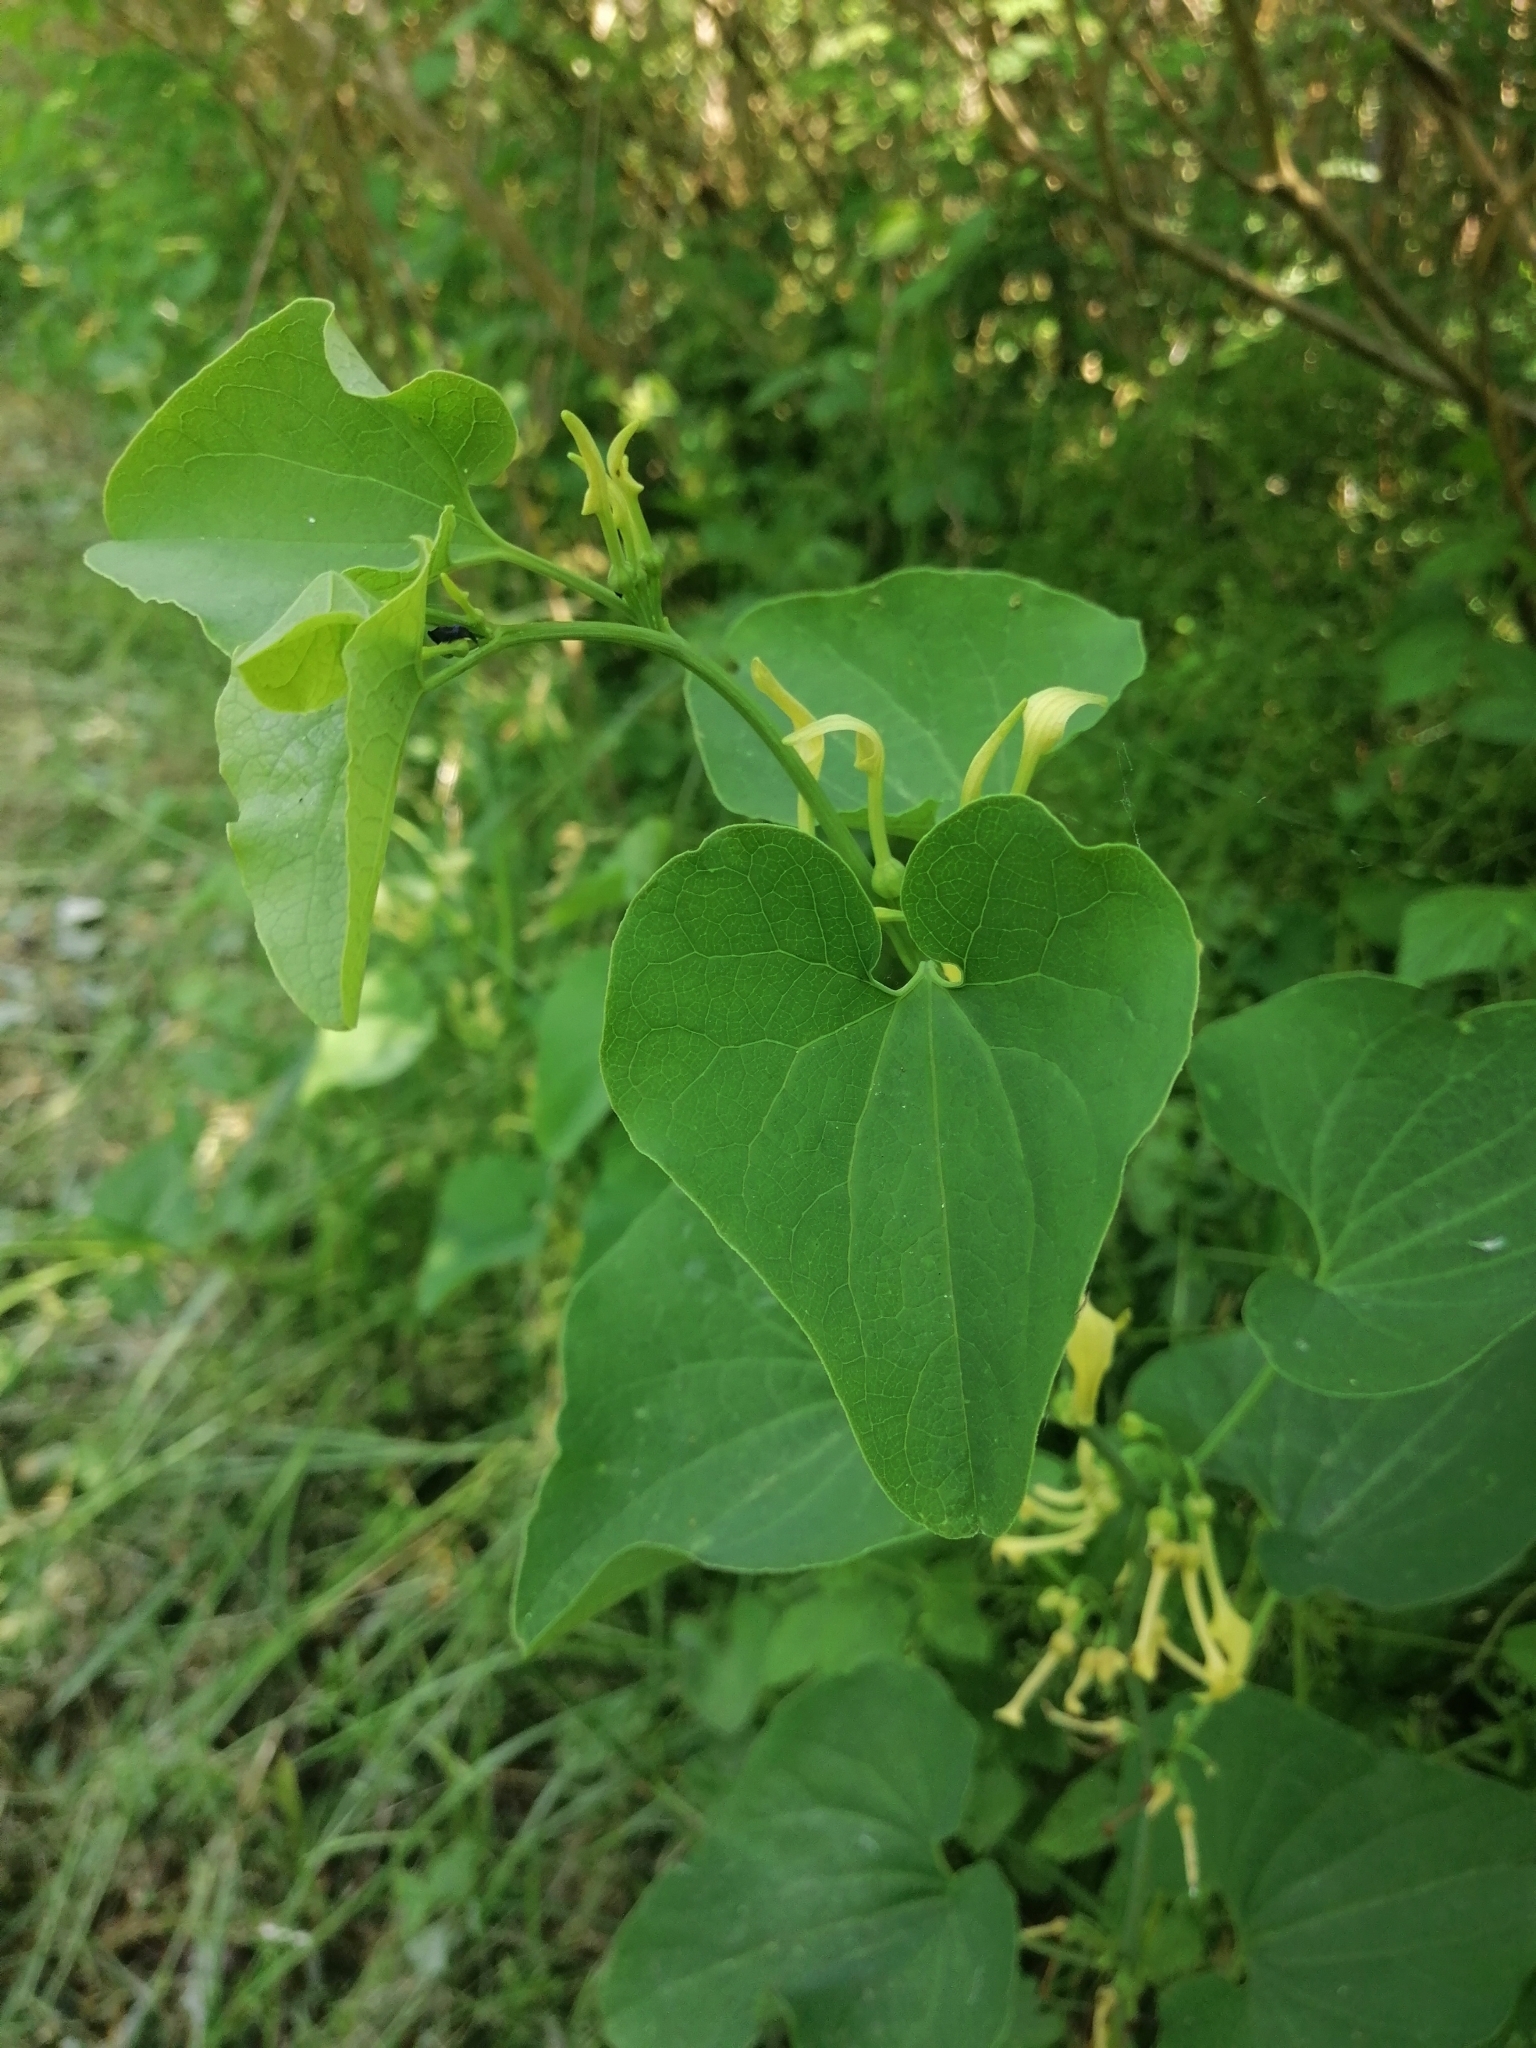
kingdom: Plantae
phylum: Tracheophyta
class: Magnoliopsida
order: Piperales
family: Aristolochiaceae
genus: Aristolochia
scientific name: Aristolochia clematitis
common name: Birthwort
